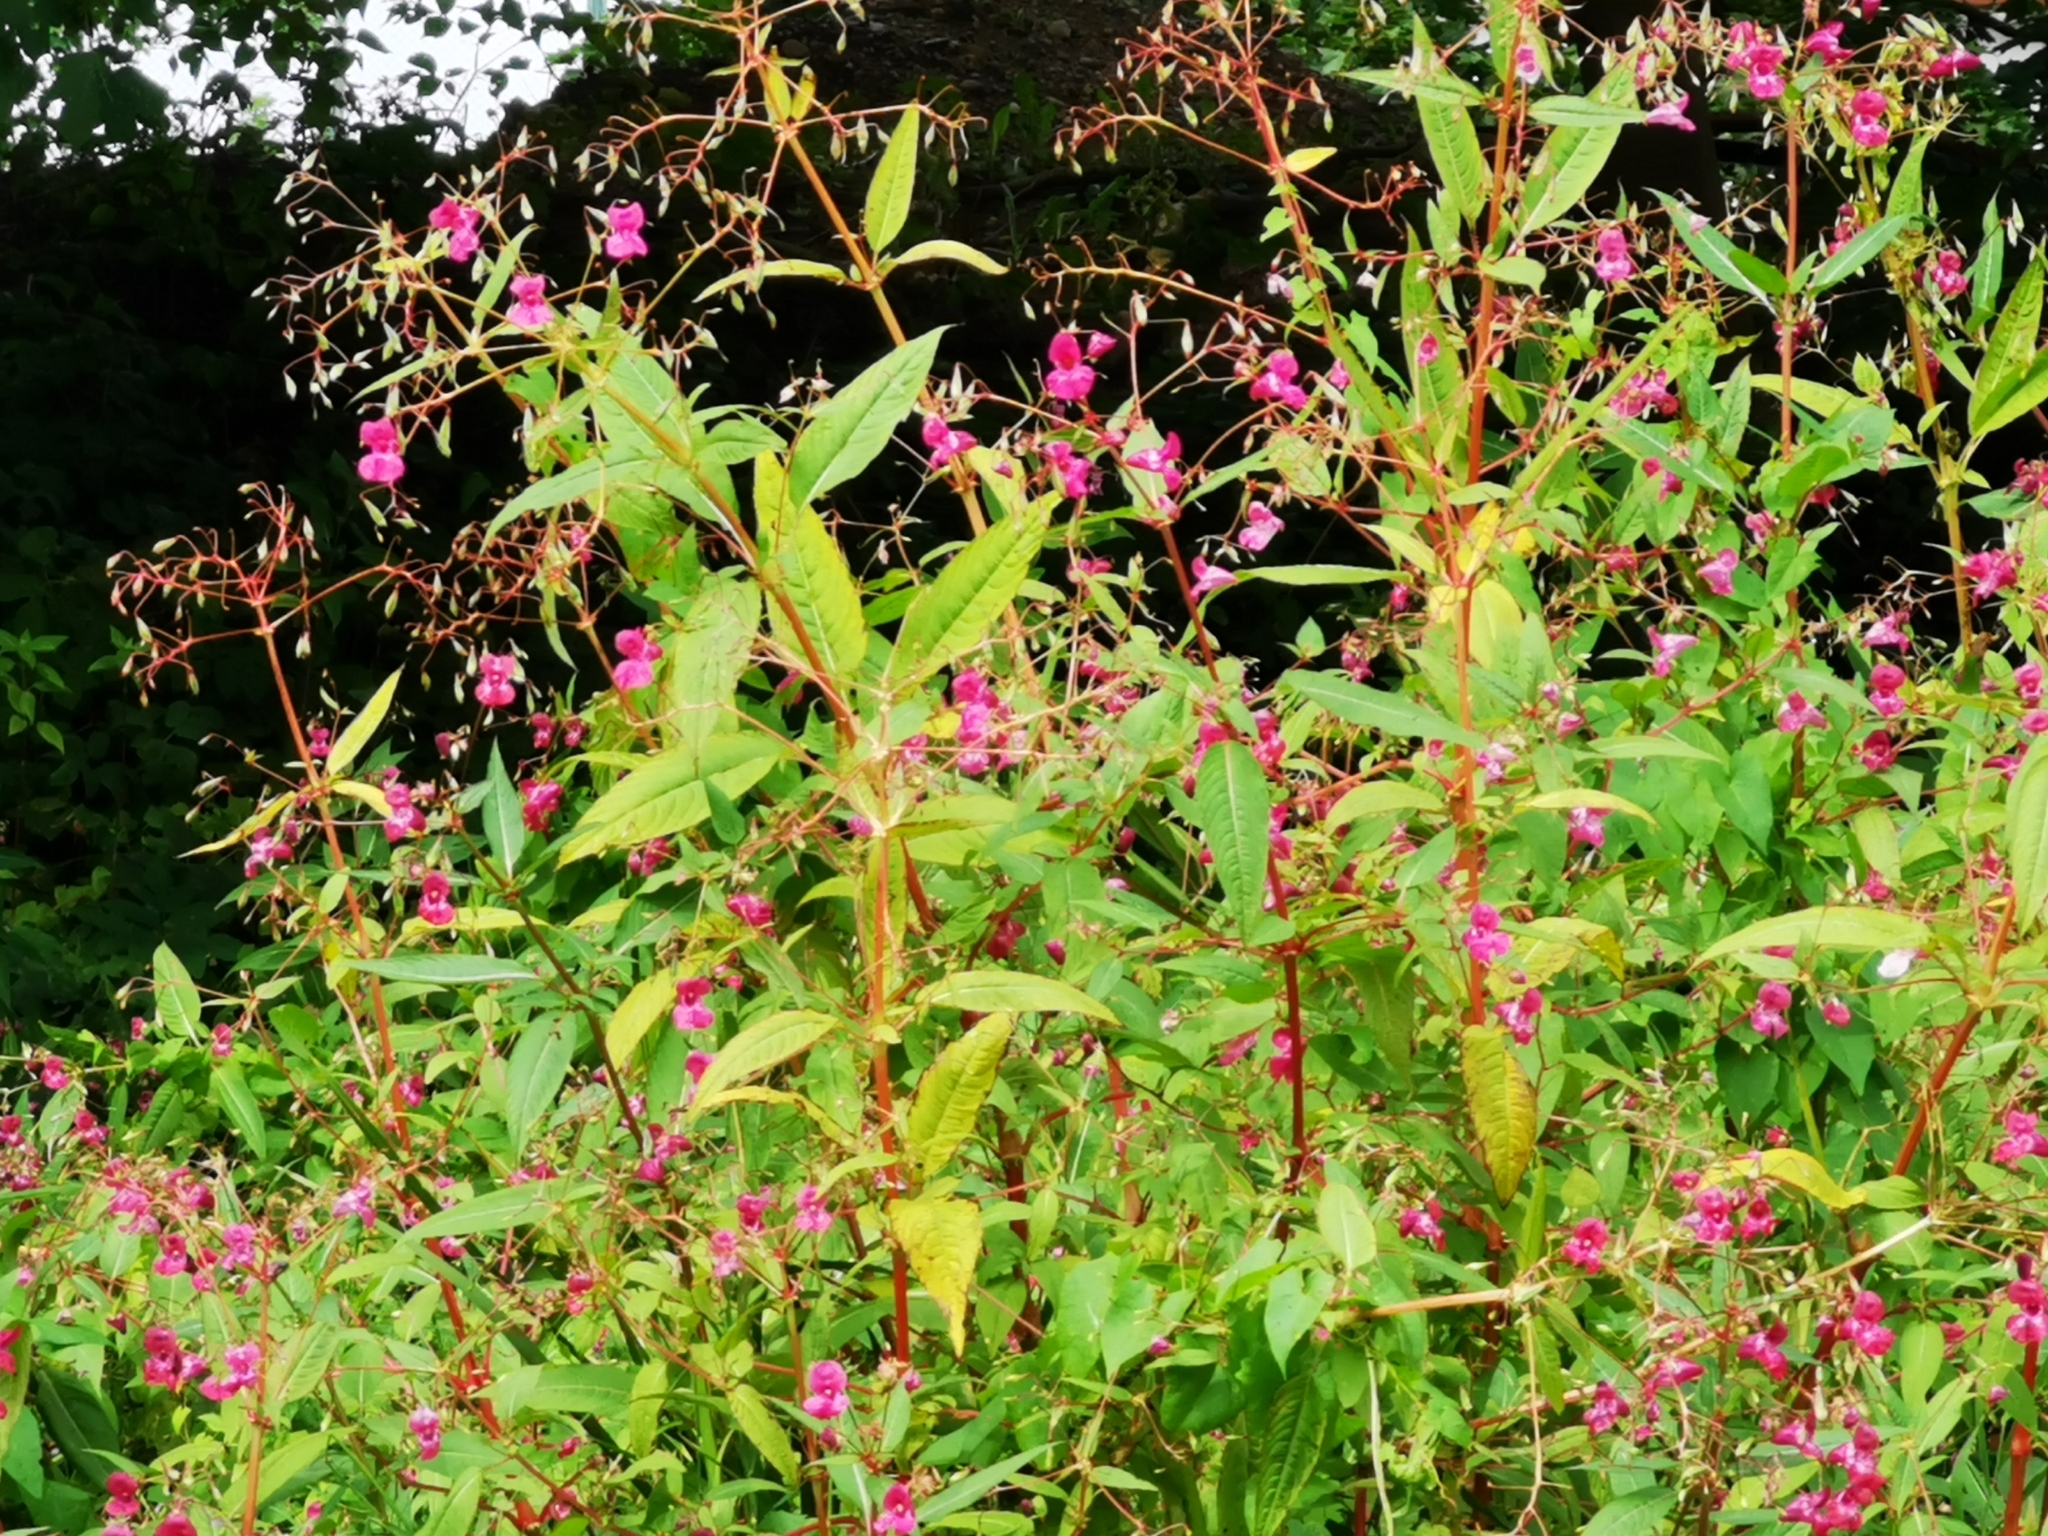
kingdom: Plantae
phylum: Tracheophyta
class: Magnoliopsida
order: Ericales
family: Balsaminaceae
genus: Impatiens
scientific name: Impatiens glandulifera
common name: Himalayan balsam
